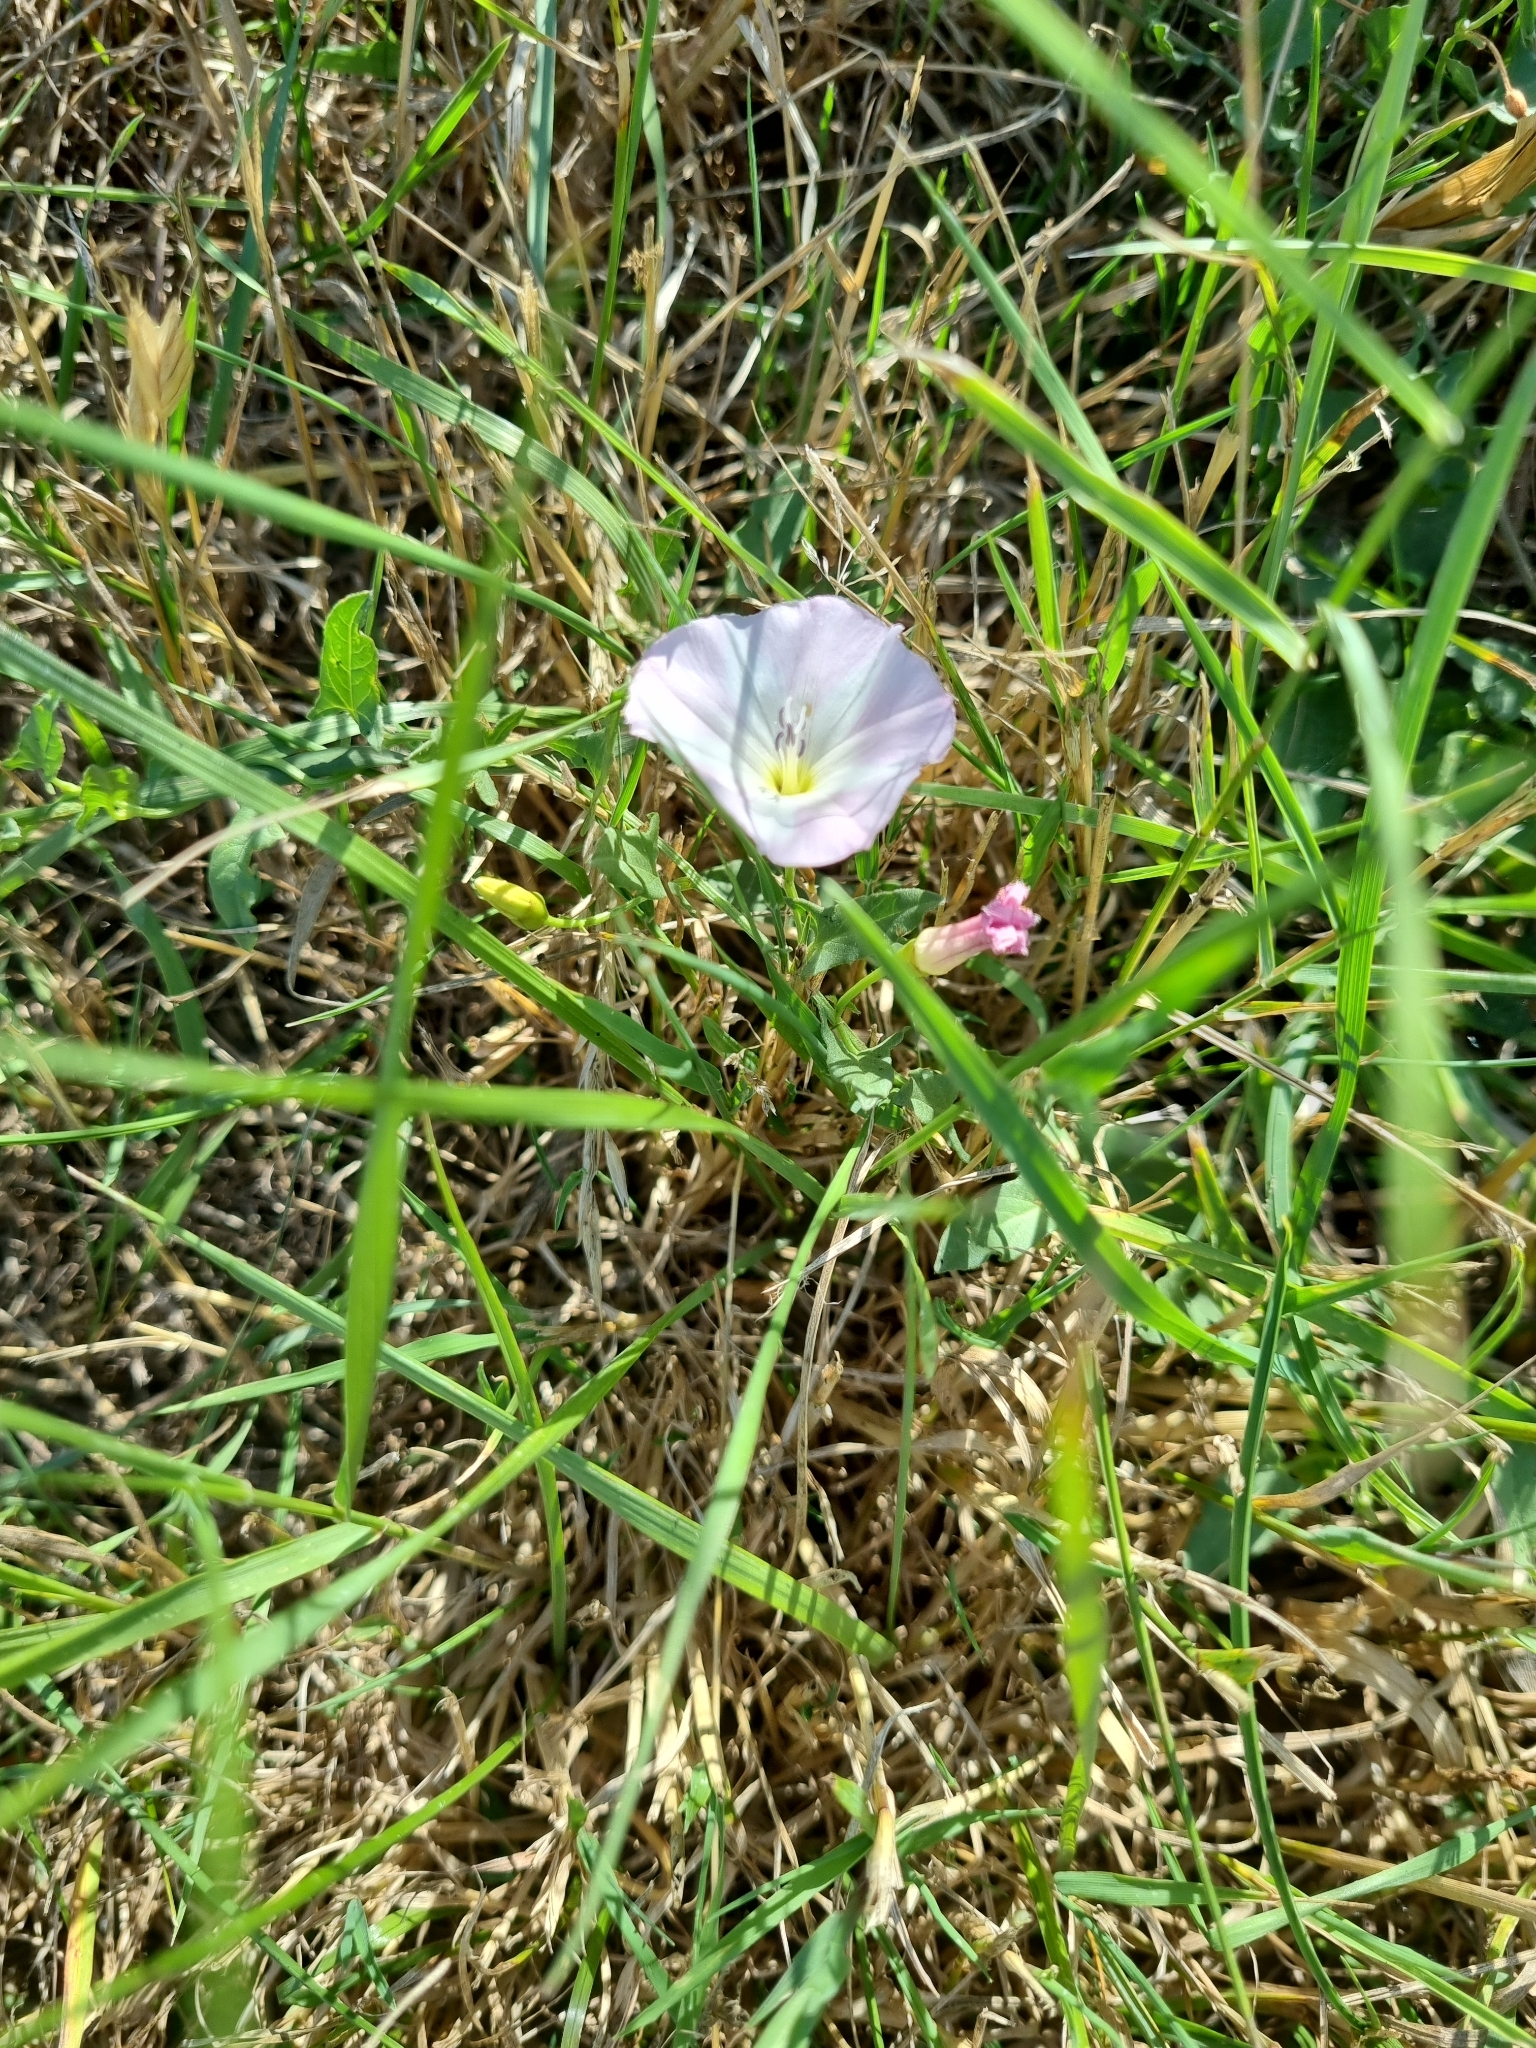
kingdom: Plantae
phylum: Tracheophyta
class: Magnoliopsida
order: Solanales
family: Convolvulaceae
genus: Convolvulus
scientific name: Convolvulus arvensis
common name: Field bindweed
